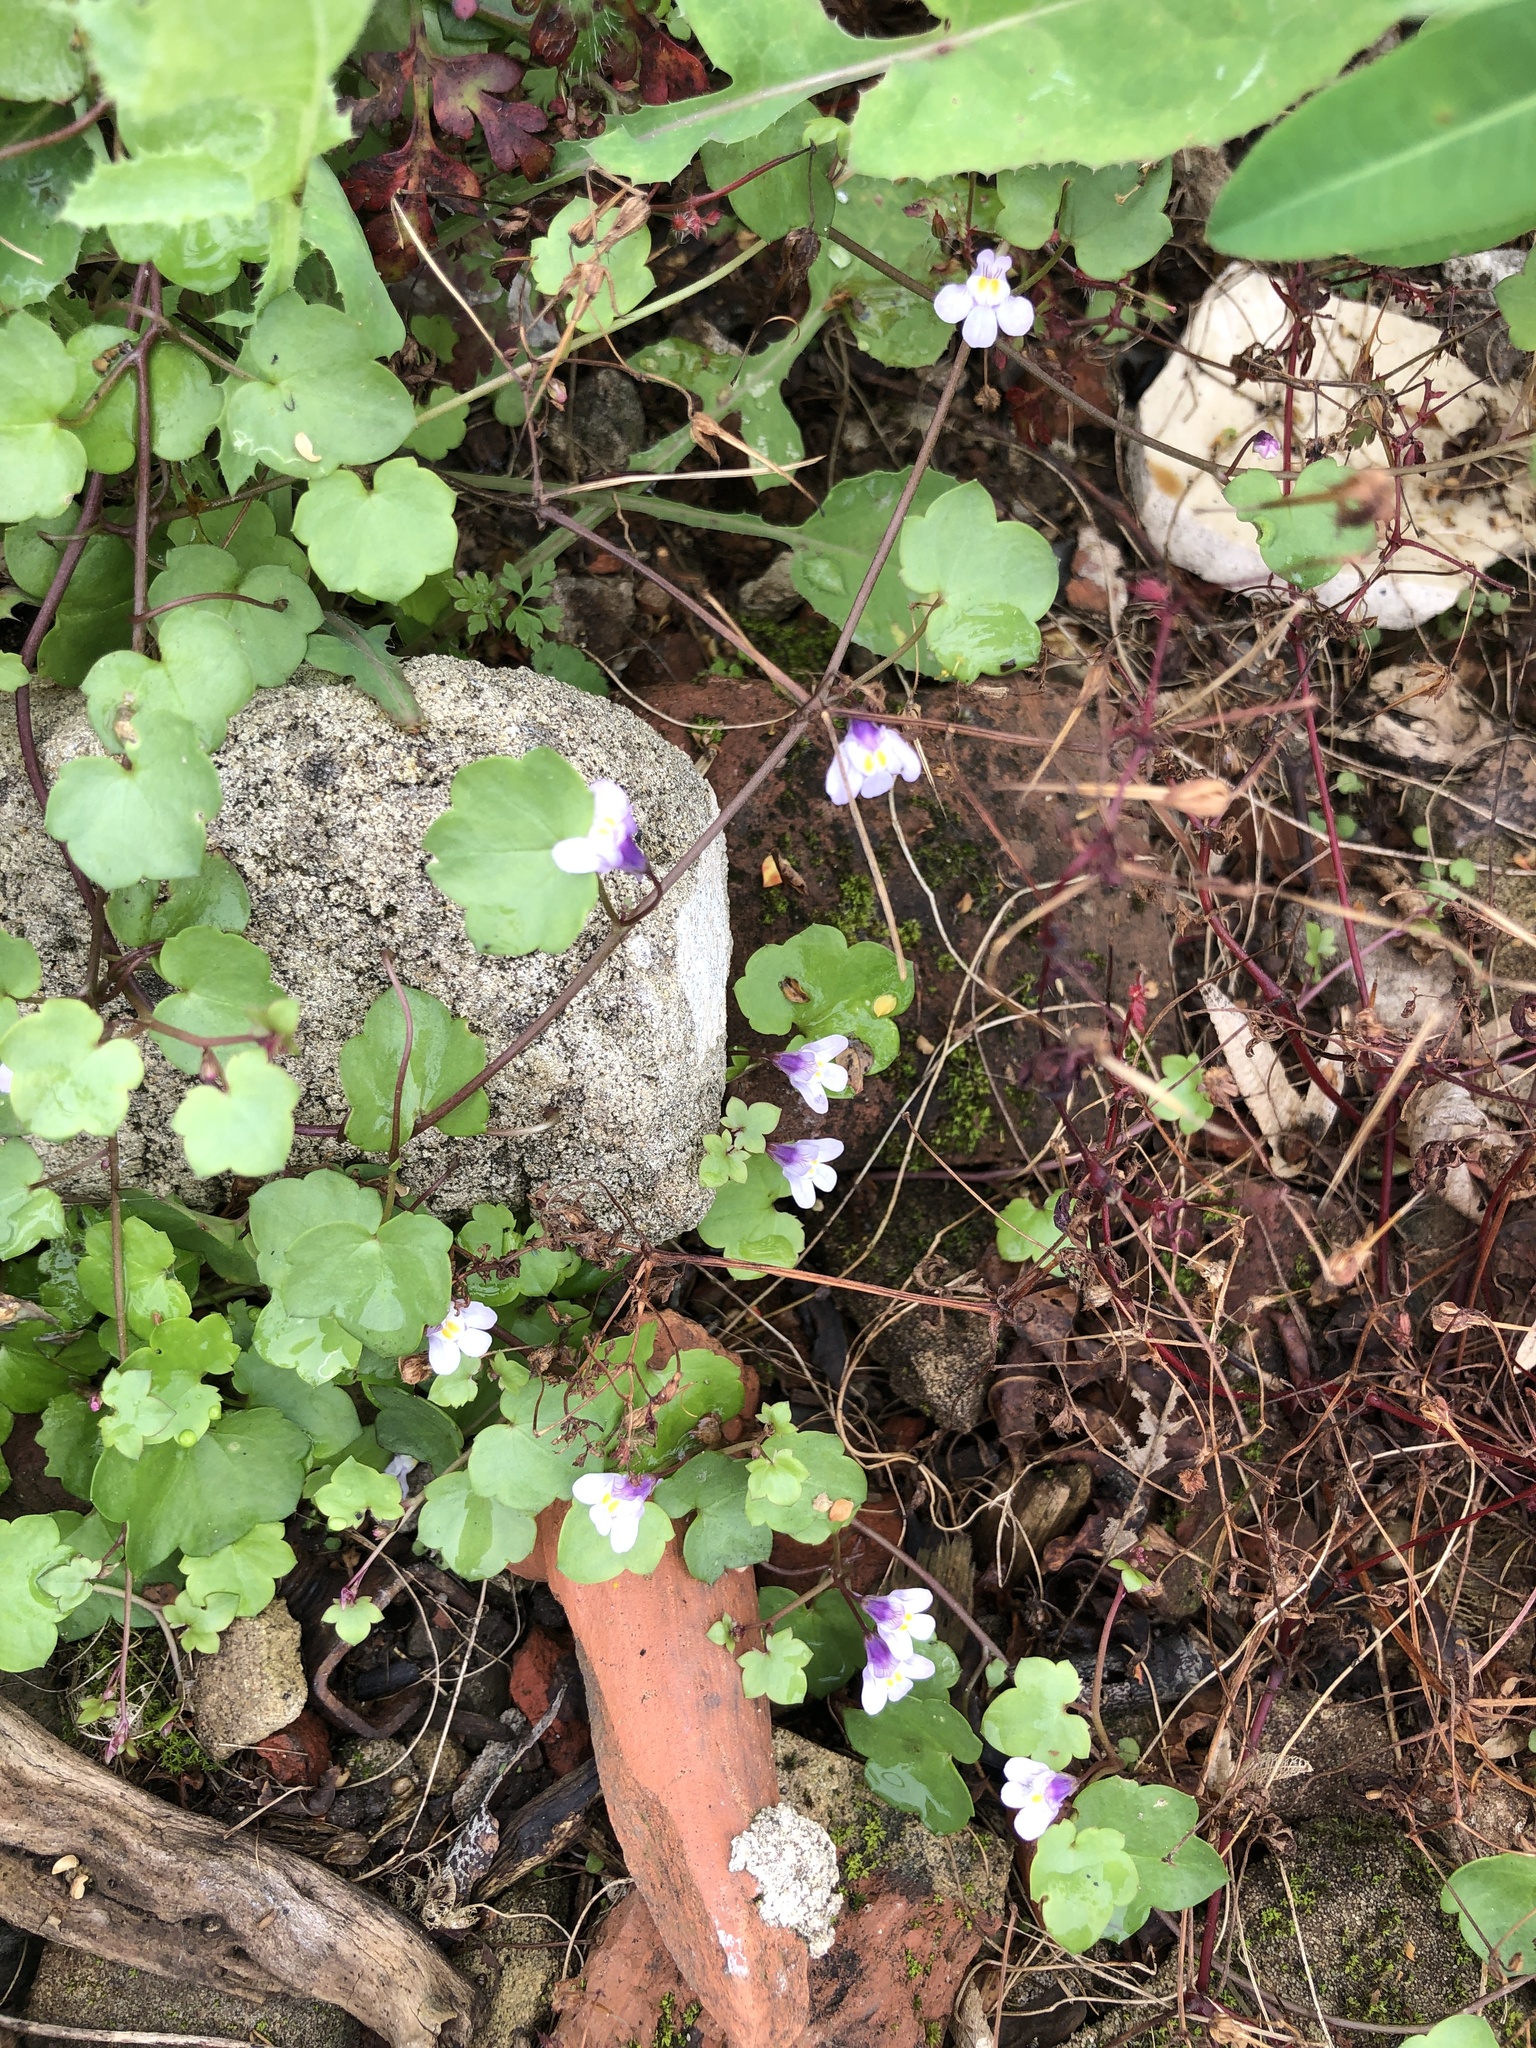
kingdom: Plantae
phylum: Tracheophyta
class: Magnoliopsida
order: Lamiales
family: Plantaginaceae
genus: Cymbalaria
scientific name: Cymbalaria muralis
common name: Ivy-leaved toadflax
